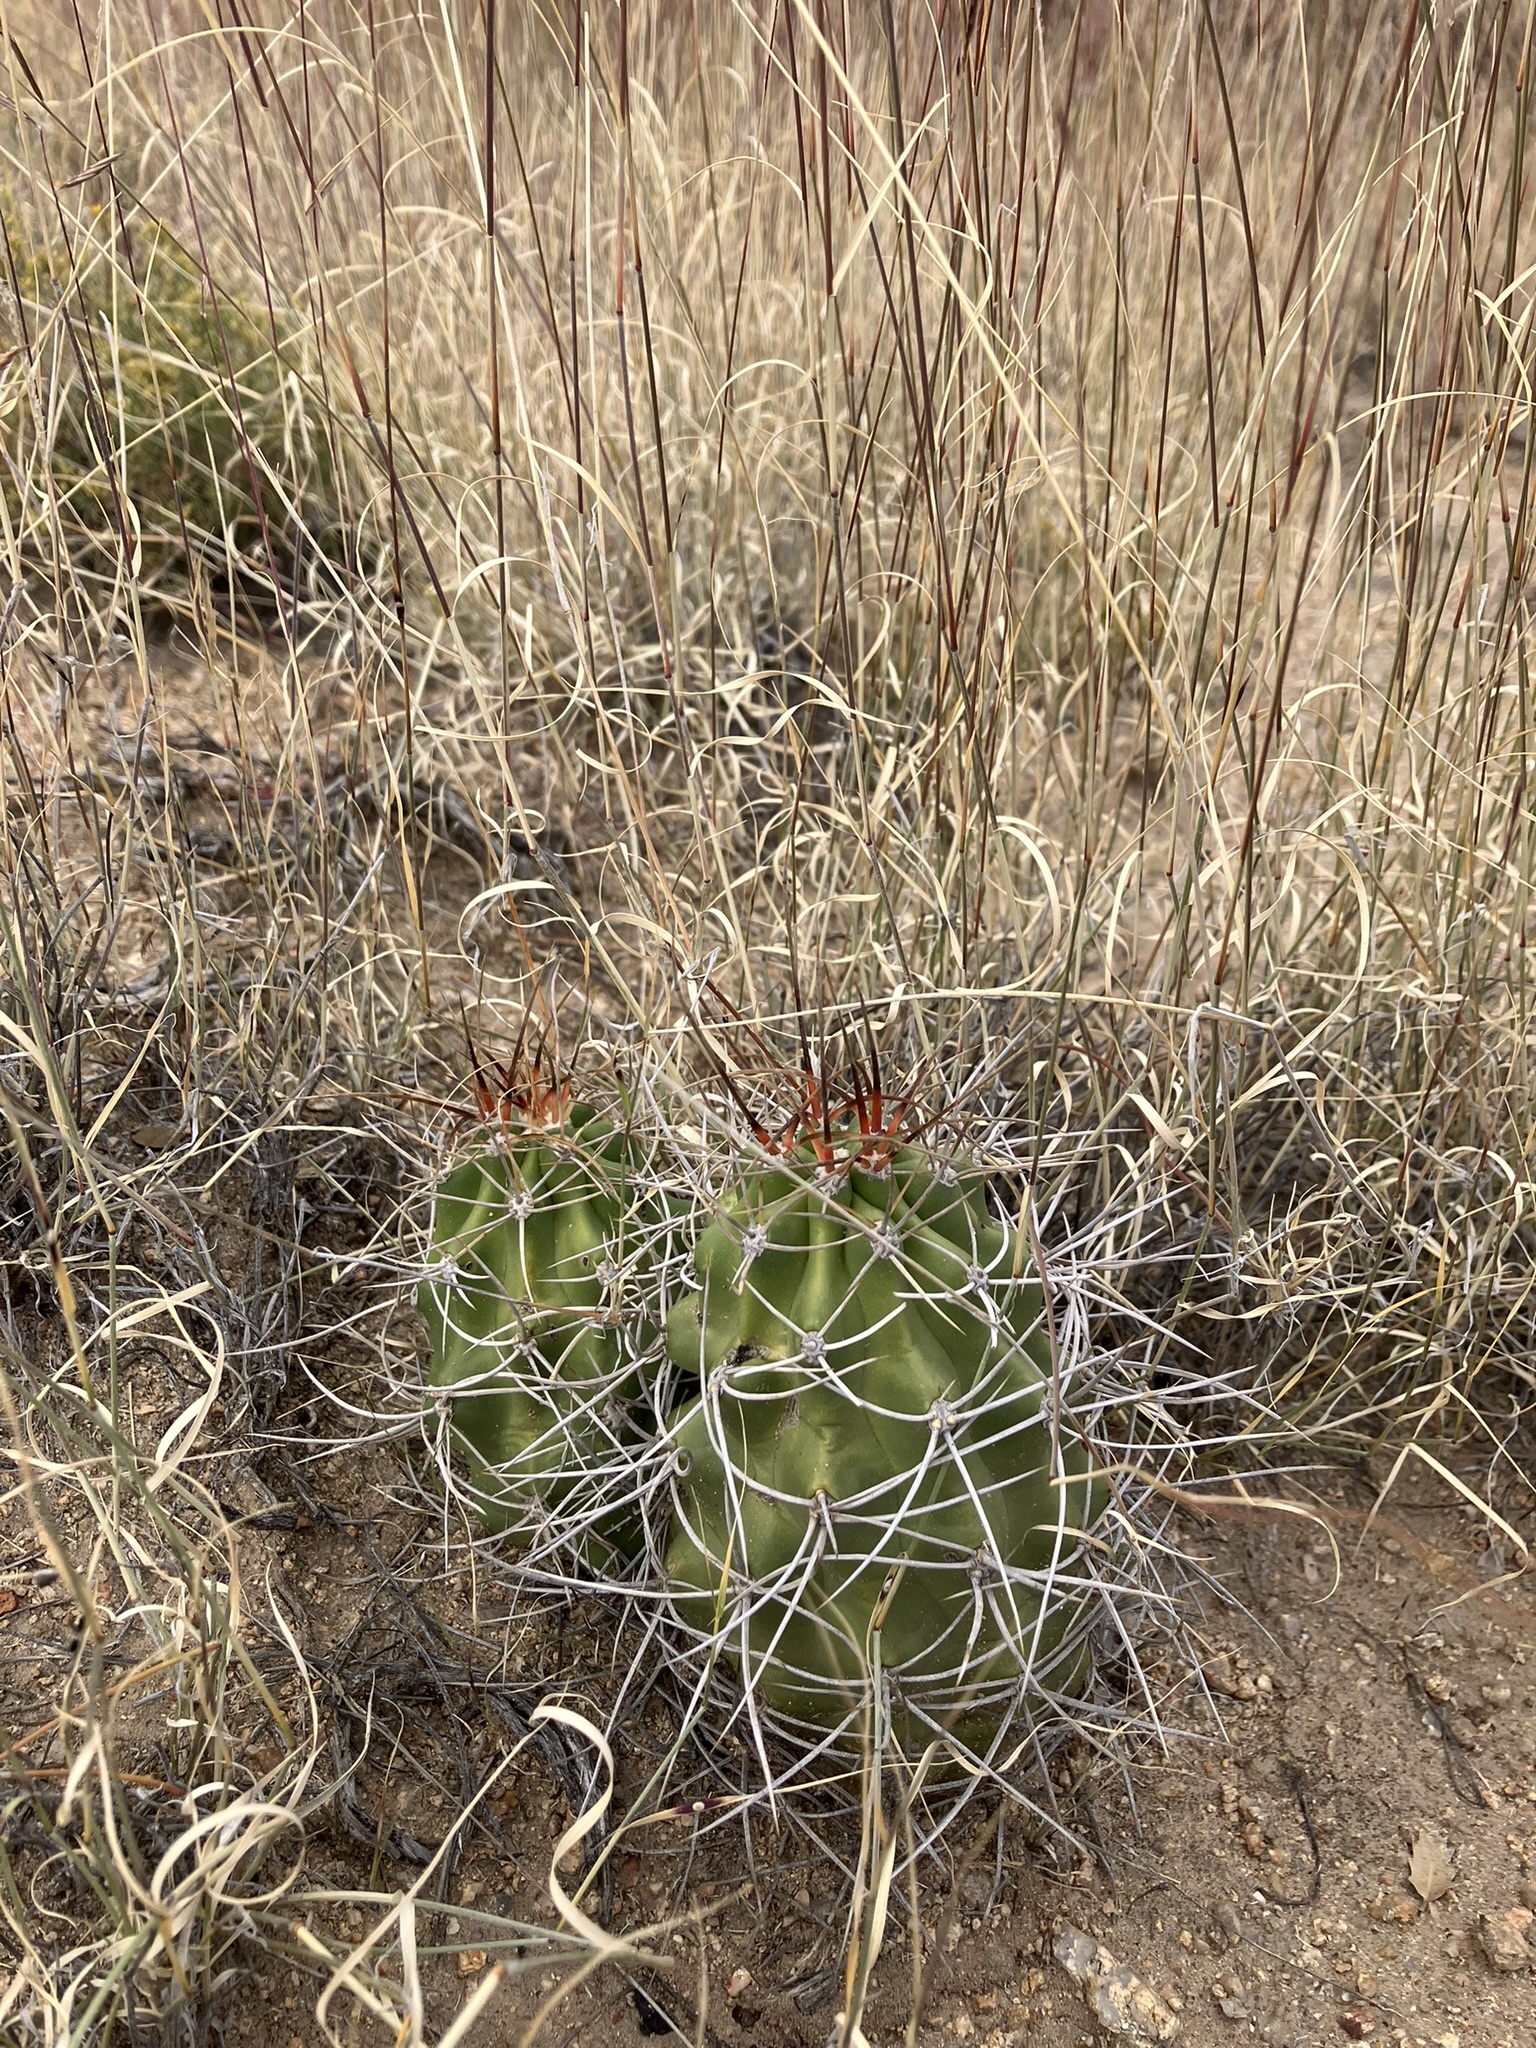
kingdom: Plantae
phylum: Tracheophyta
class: Magnoliopsida
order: Caryophyllales
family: Cactaceae
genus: Echinocereus
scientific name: Echinocereus triglochidiatus
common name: Claretcup hedgehog
